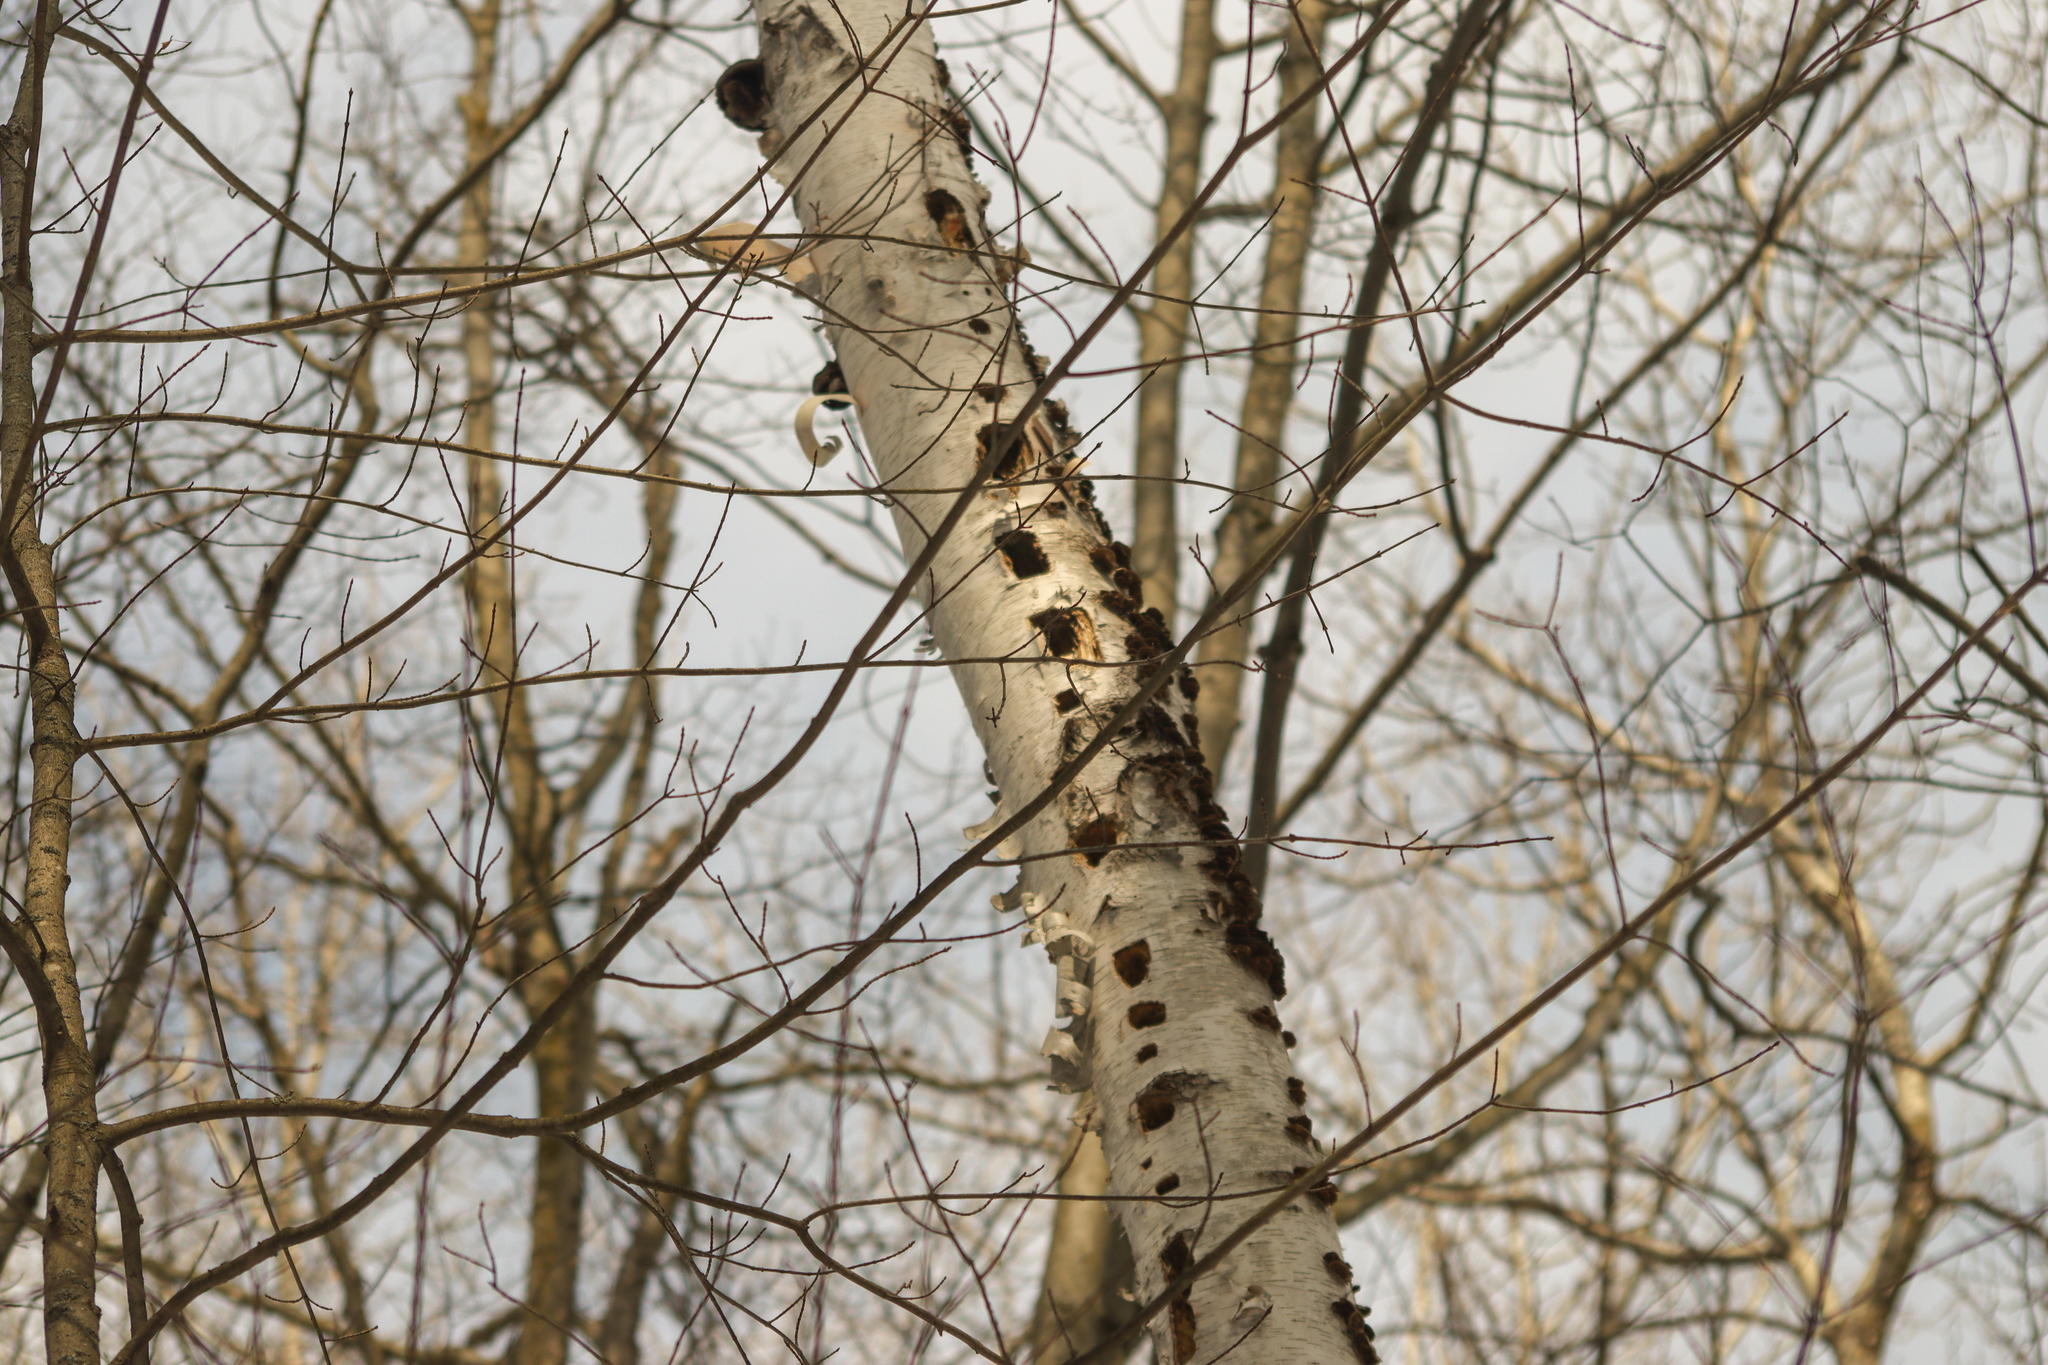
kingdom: Animalia
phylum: Chordata
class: Aves
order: Piciformes
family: Picidae
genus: Dryocopus
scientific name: Dryocopus pileatus
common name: Pileated woodpecker
